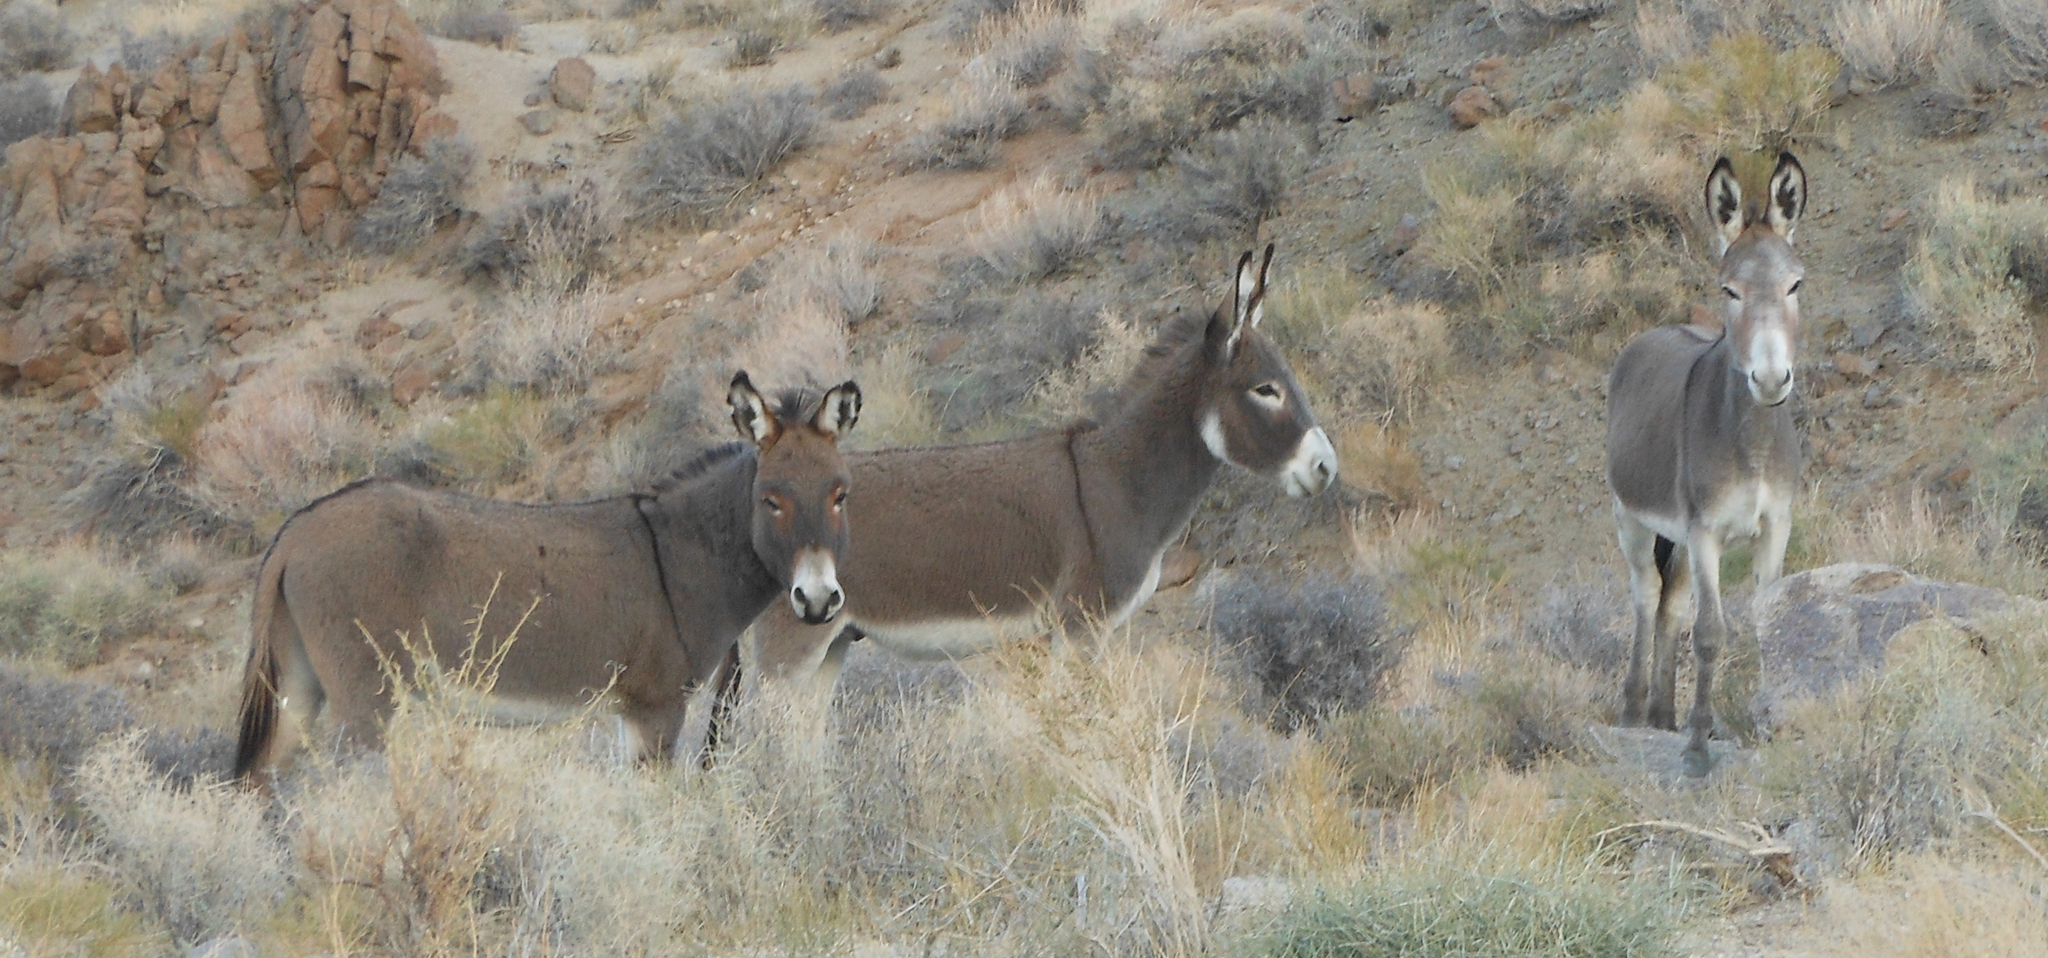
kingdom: Animalia
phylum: Chordata
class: Mammalia
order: Perissodactyla
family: Equidae
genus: Equus
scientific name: Equus asinus
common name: Ass
